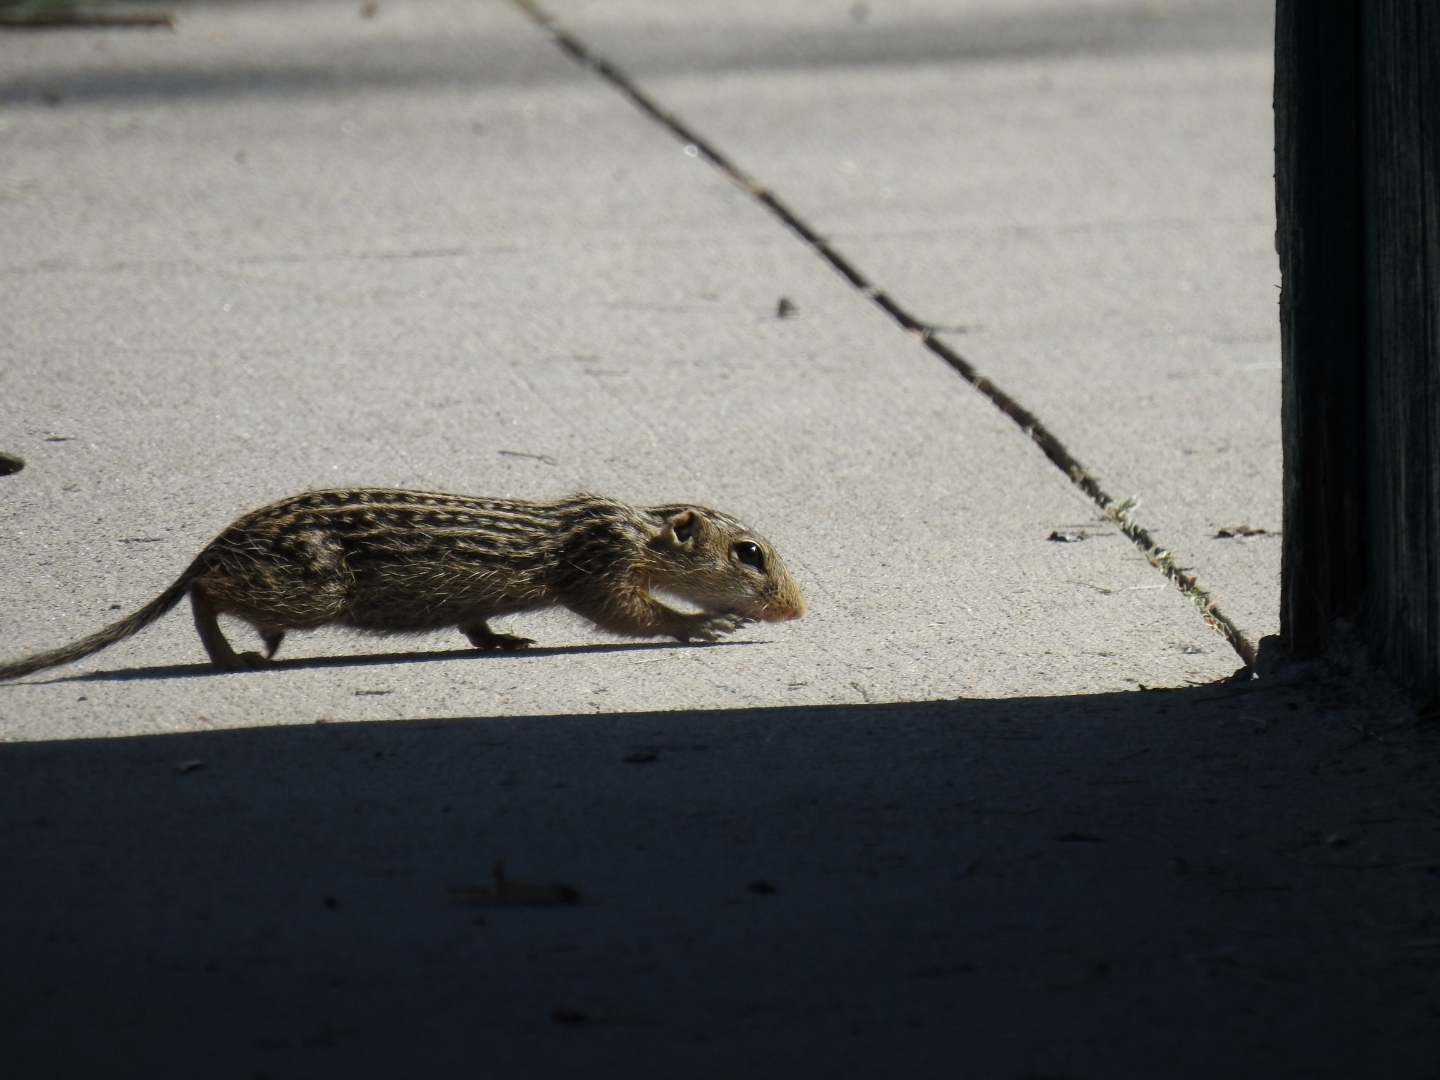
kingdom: Animalia
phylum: Chordata
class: Mammalia
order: Rodentia
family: Sciuridae
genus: Ictidomys
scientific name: Ictidomys tridecemlineatus
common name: Thirteen-lined ground squirrel
